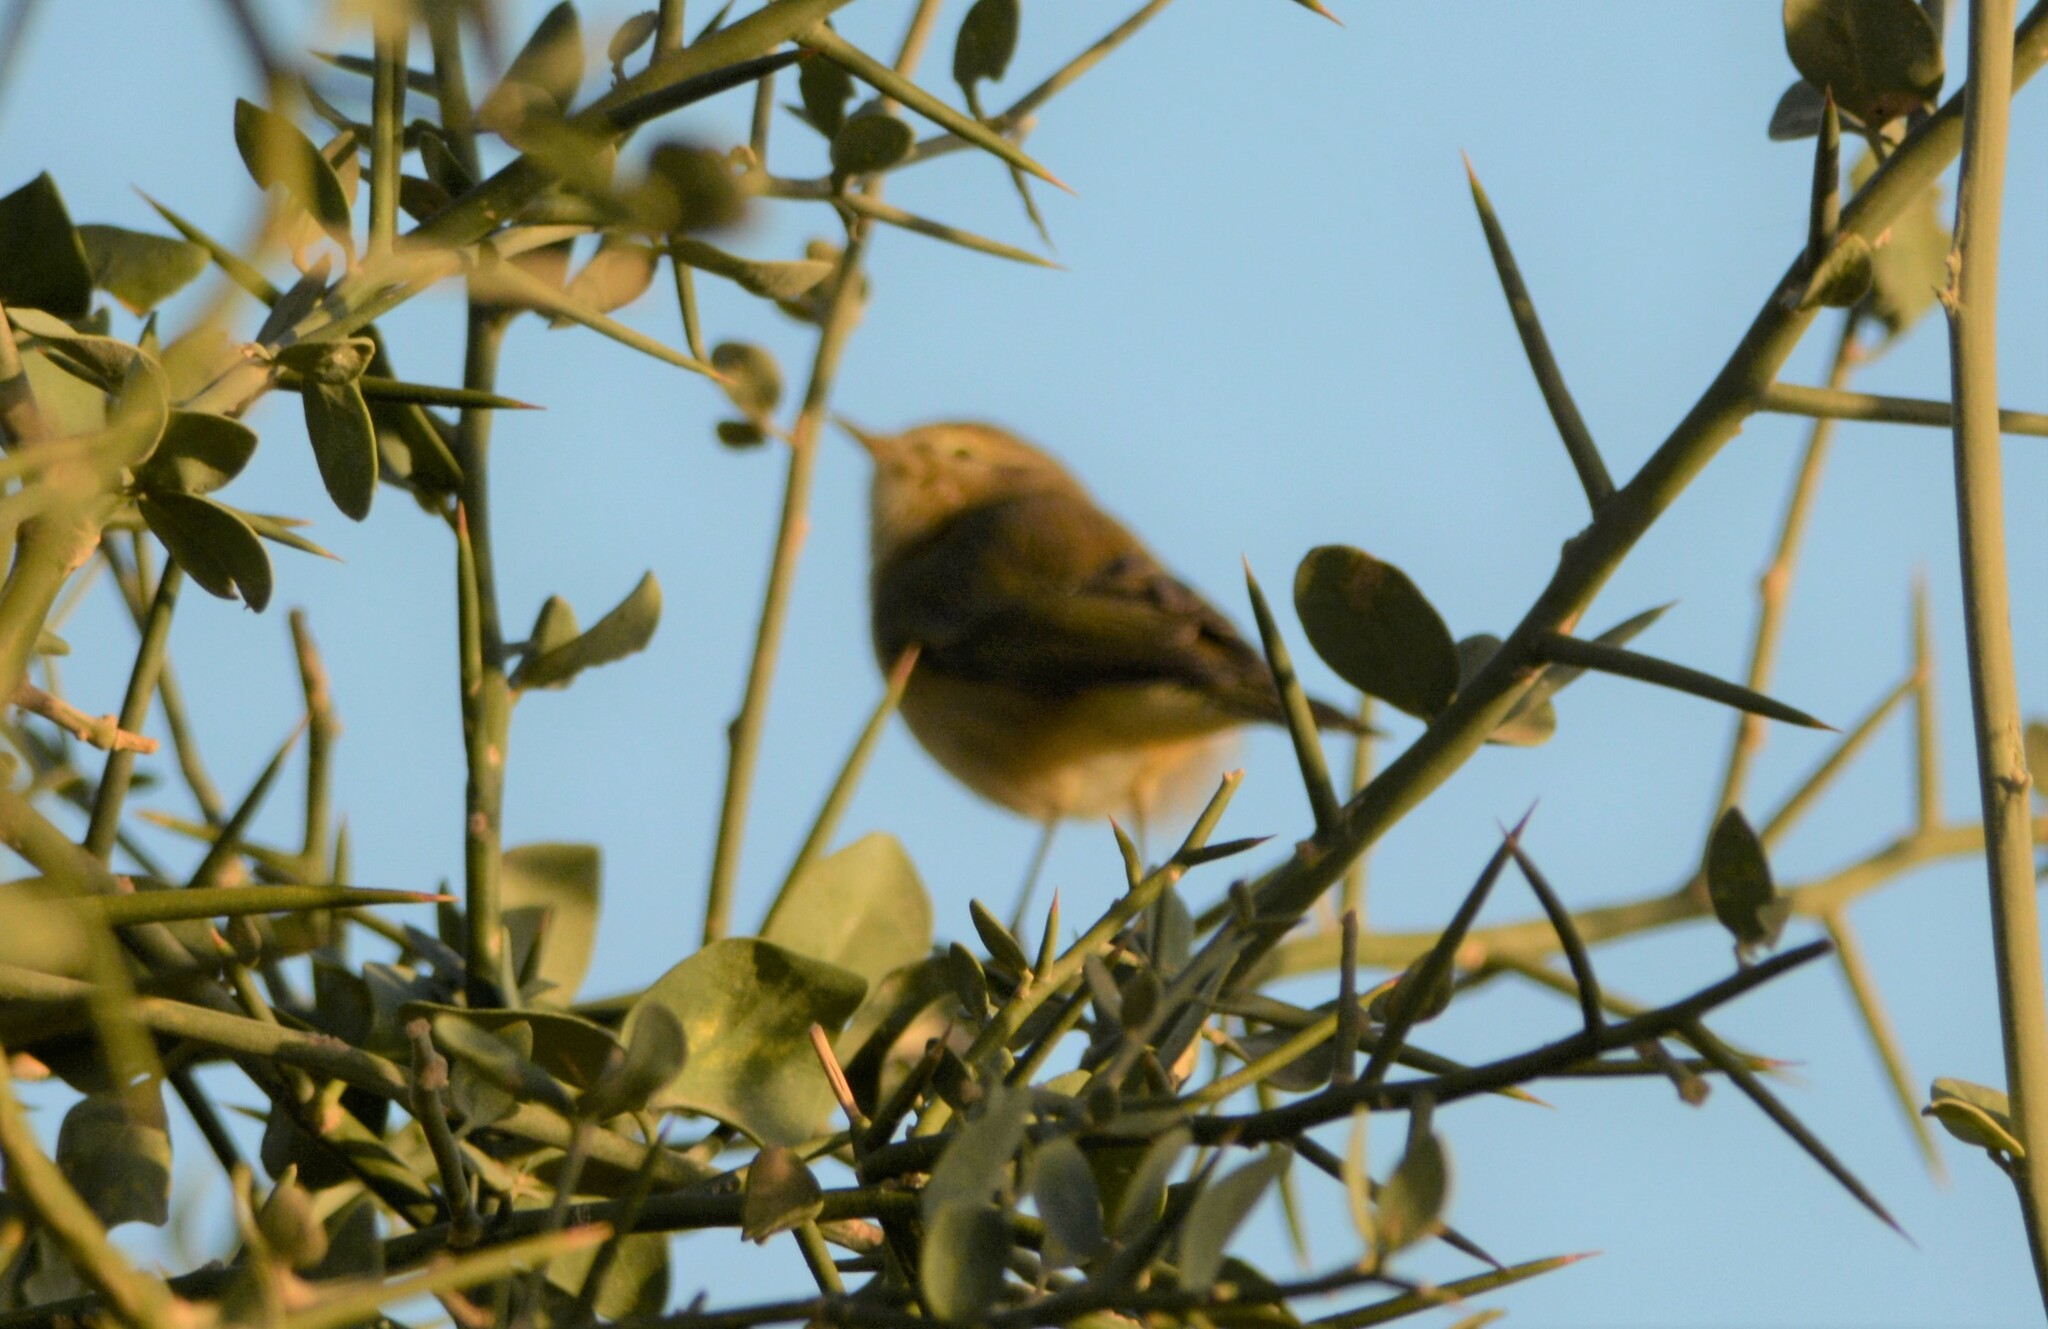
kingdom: Animalia
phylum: Chordata
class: Aves
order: Passeriformes
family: Phylloscopidae
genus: Phylloscopus
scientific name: Phylloscopus trochilus
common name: Willow warbler
